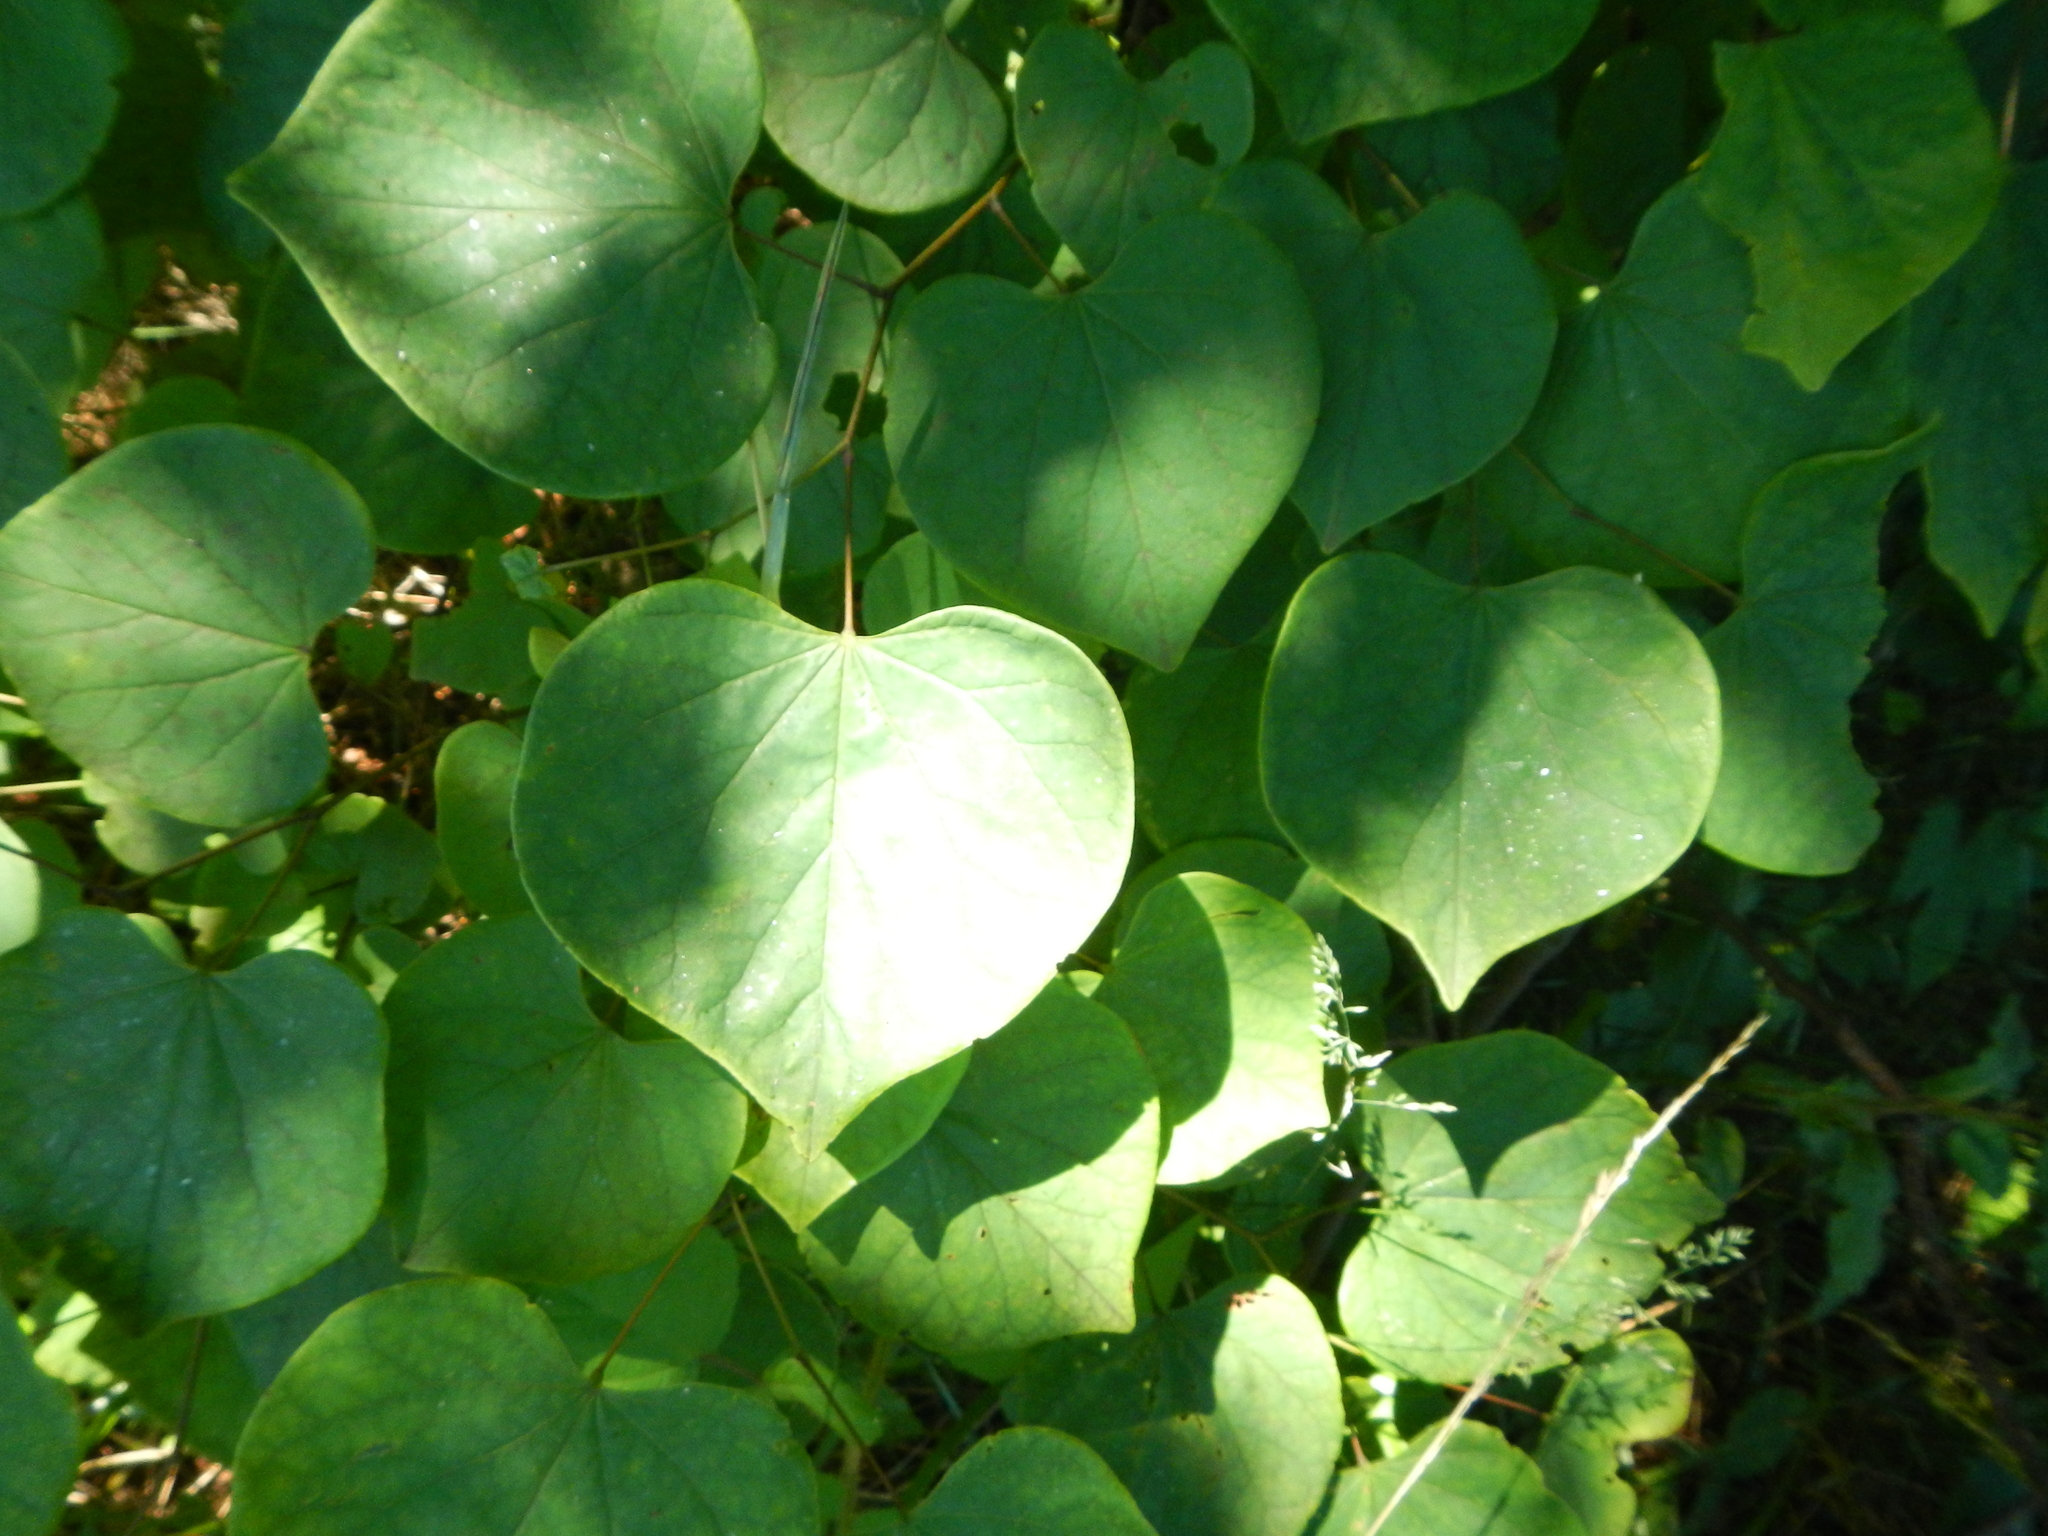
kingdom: Plantae
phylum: Tracheophyta
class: Magnoliopsida
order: Fabales
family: Fabaceae
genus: Cercis
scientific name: Cercis canadensis
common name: Eastern redbud
